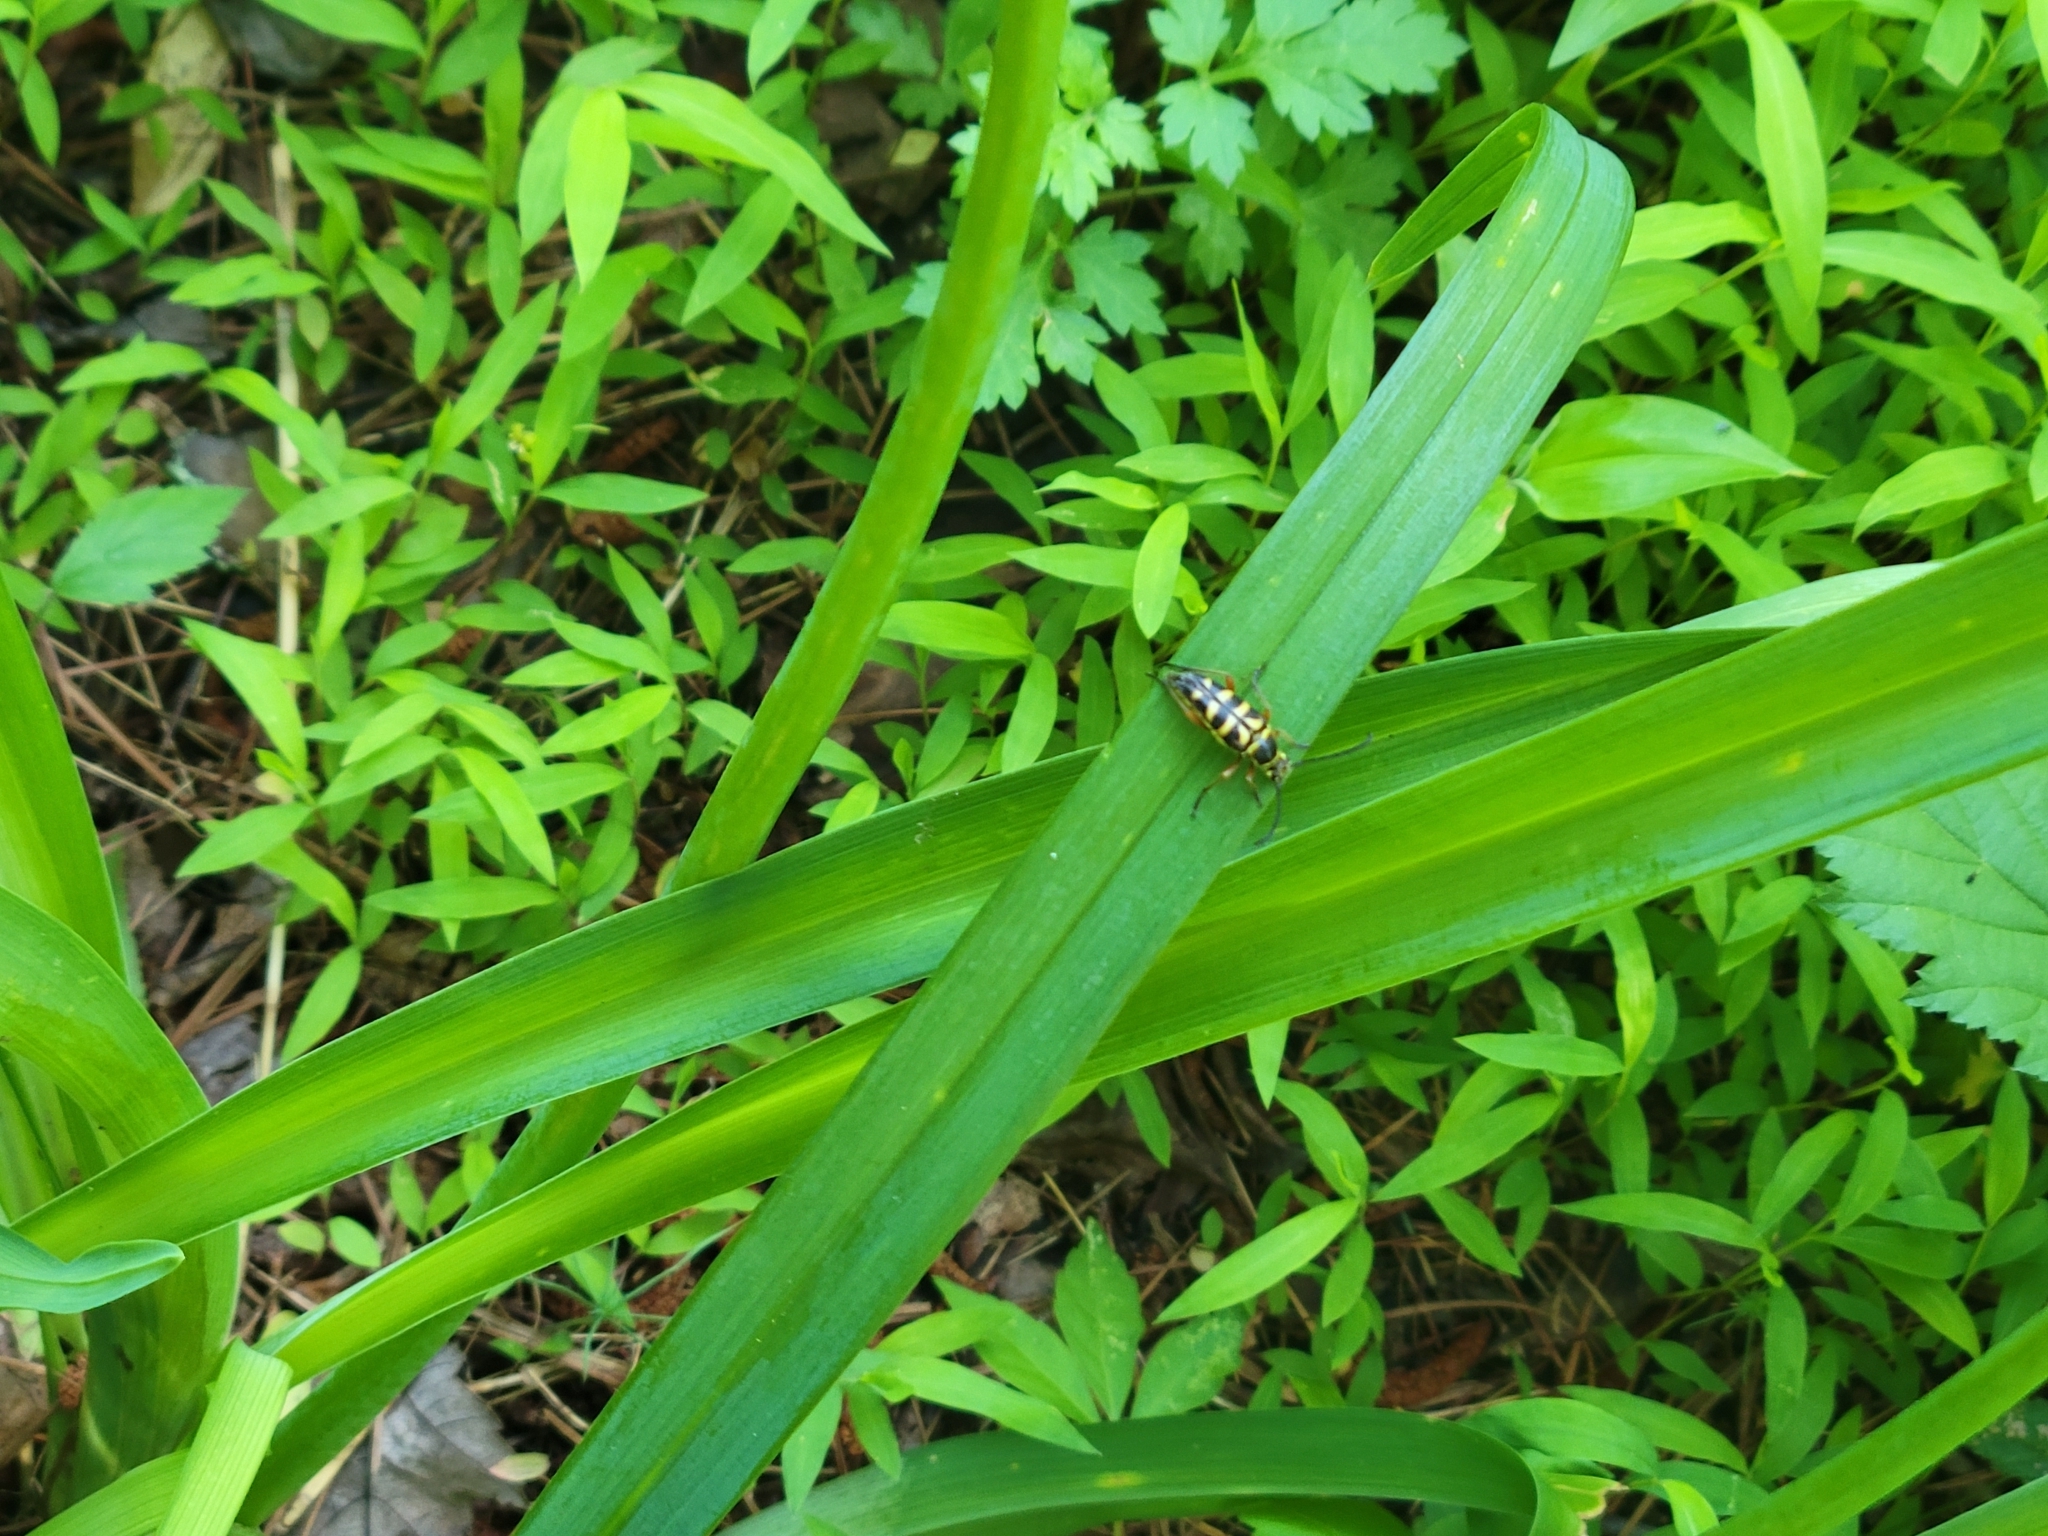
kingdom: Animalia
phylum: Arthropoda
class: Insecta
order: Coleoptera
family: Cerambycidae
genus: Typocerus
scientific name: Typocerus zebra
